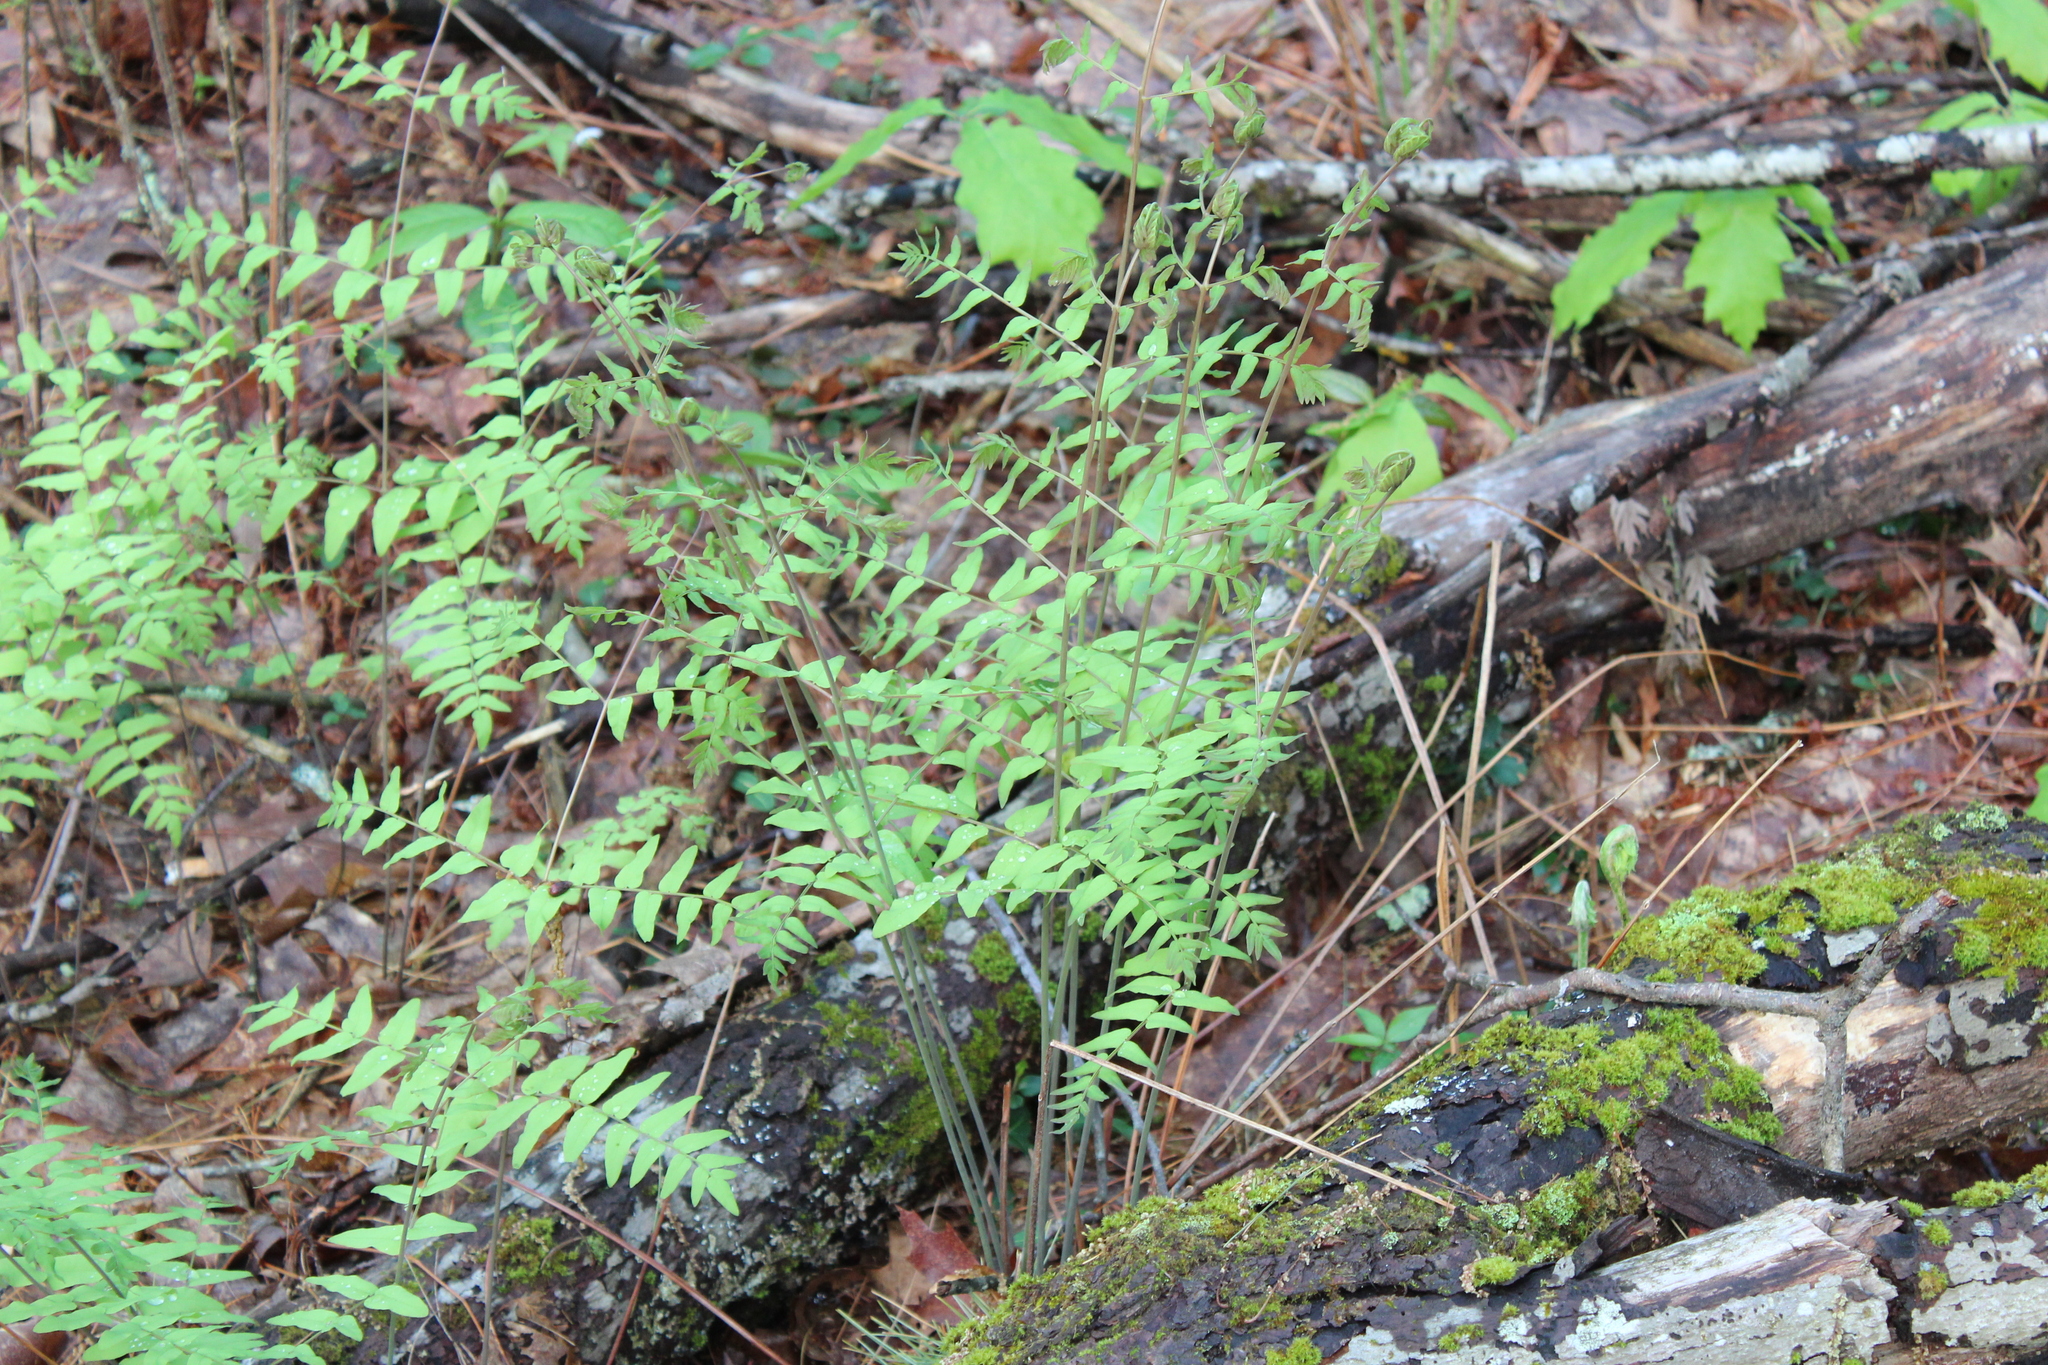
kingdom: Plantae
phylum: Tracheophyta
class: Polypodiopsida
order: Osmundales
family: Osmundaceae
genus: Osmunda
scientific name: Osmunda spectabilis
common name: American royal fern
